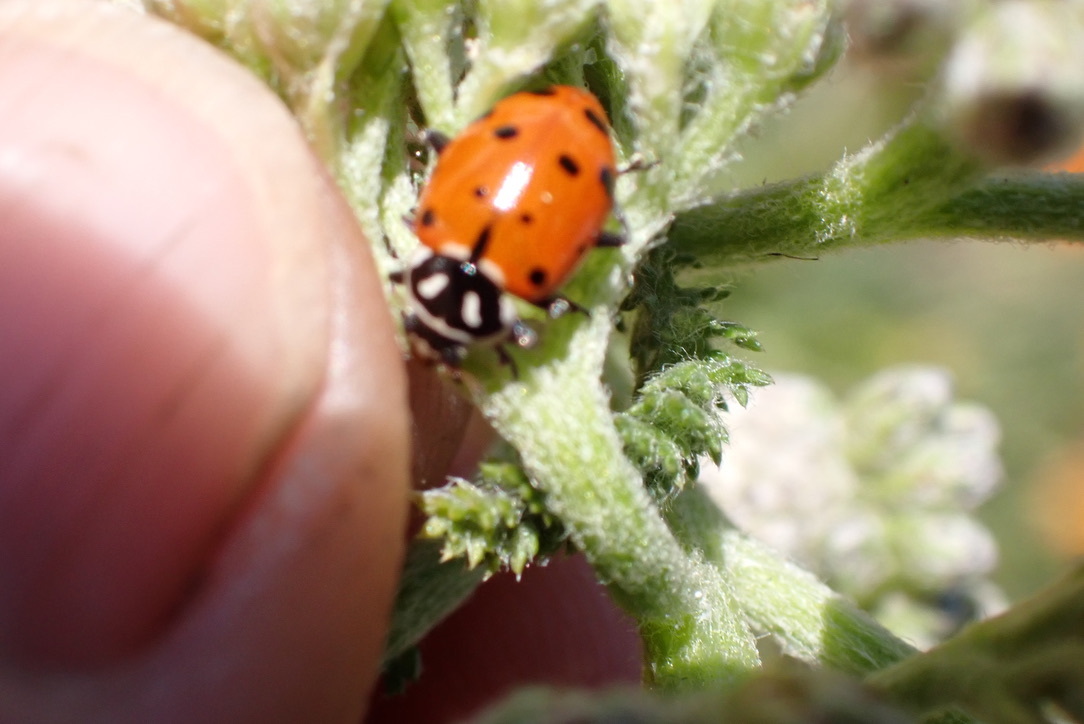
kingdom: Animalia
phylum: Arthropoda
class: Insecta
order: Coleoptera
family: Coccinellidae
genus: Hippodamia
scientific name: Hippodamia convergens
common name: Convergent lady beetle
